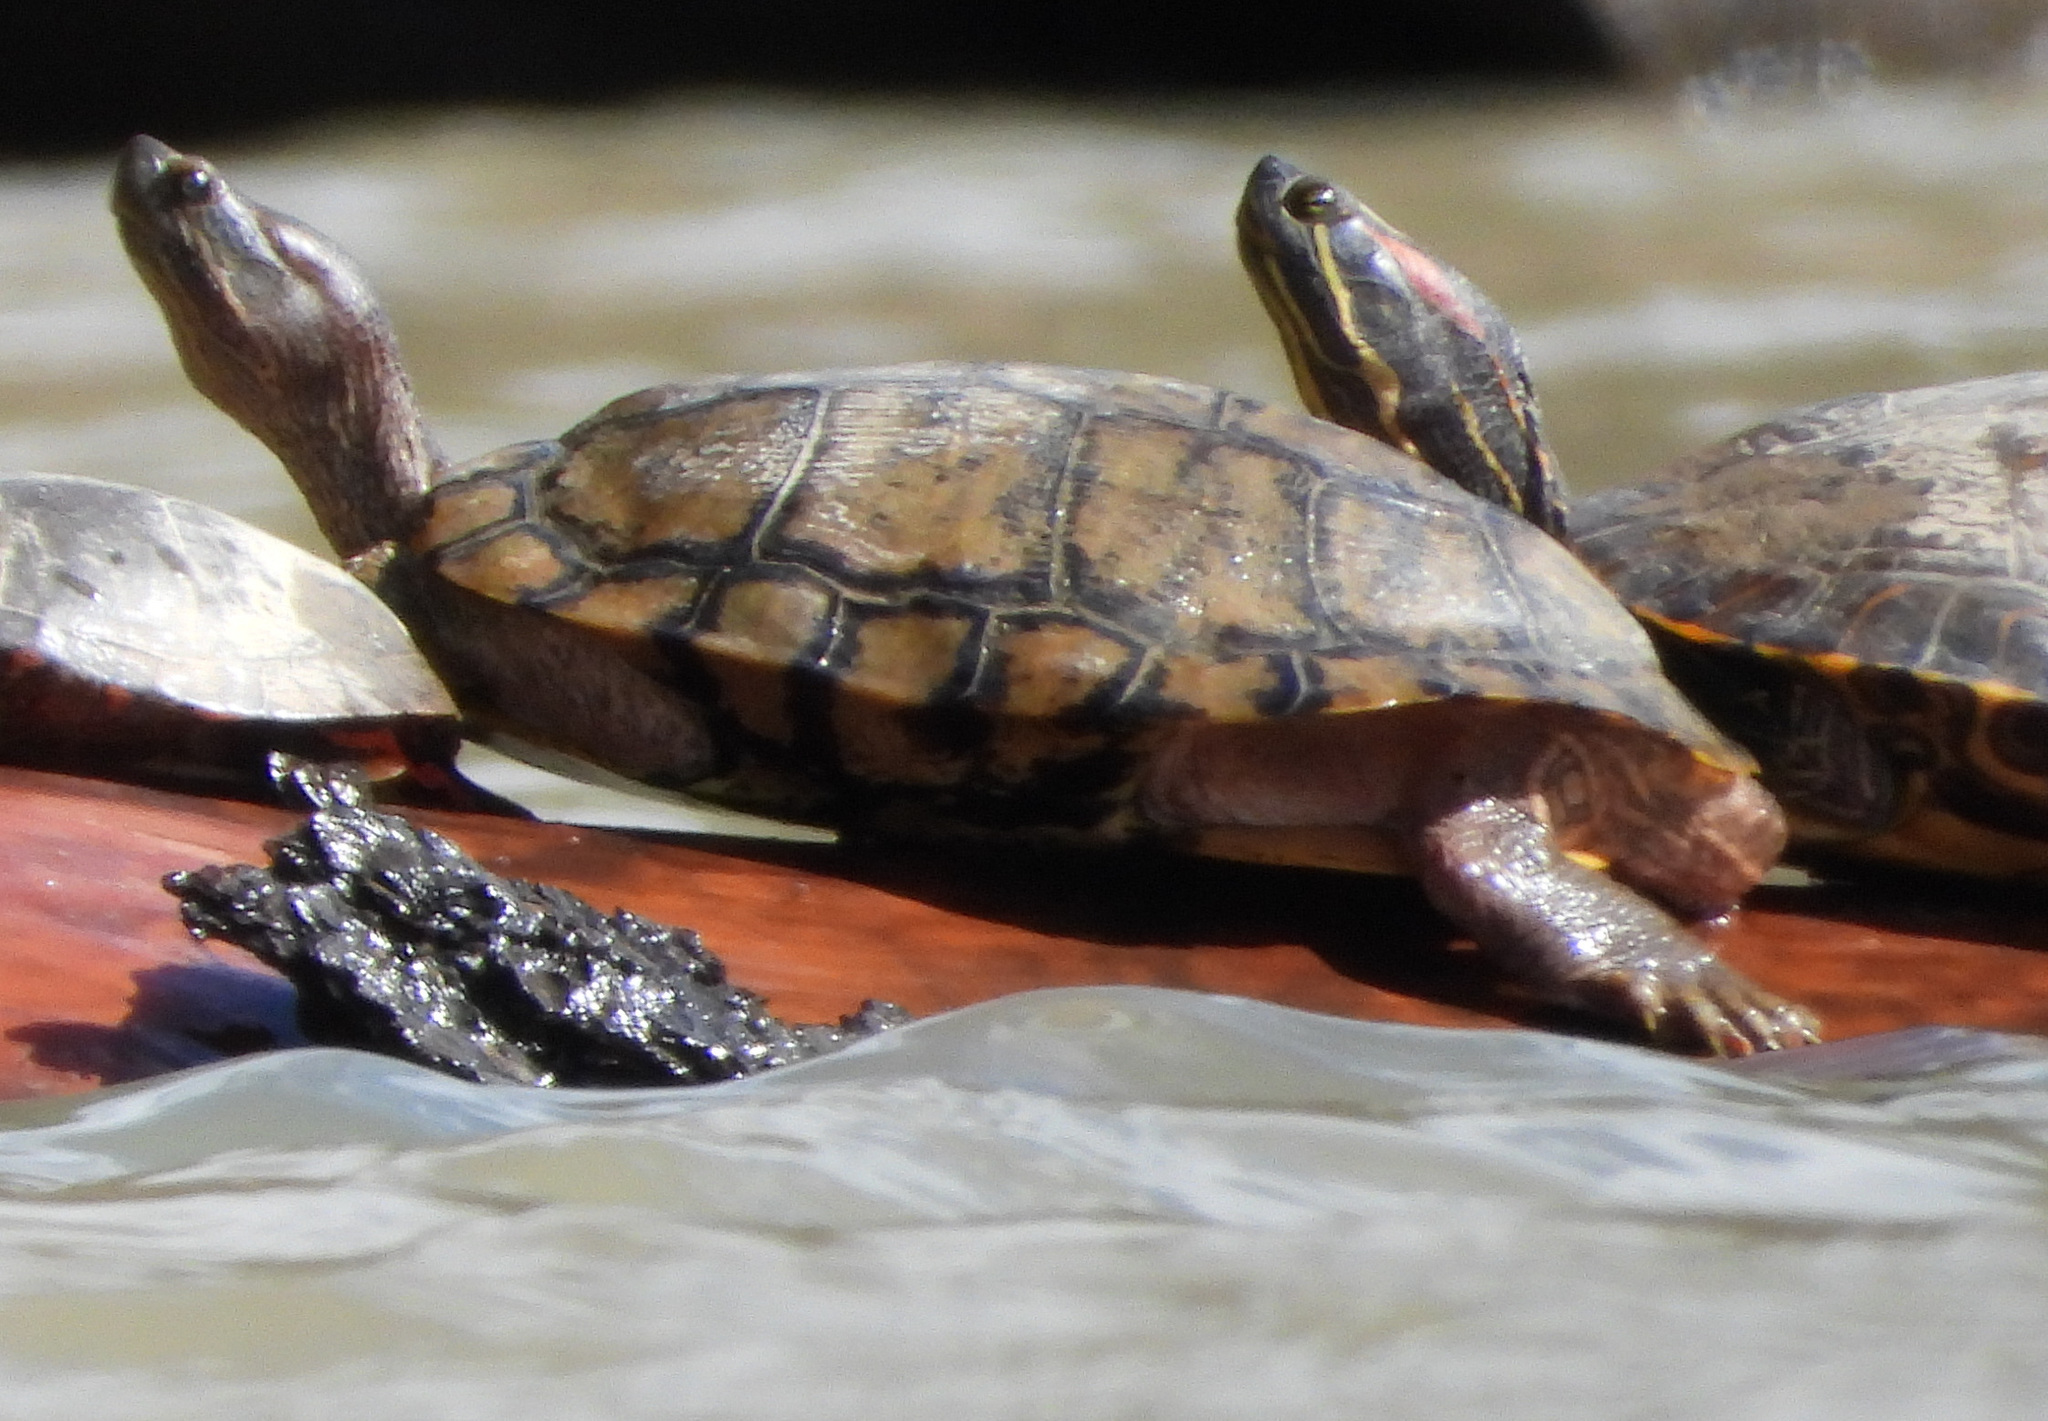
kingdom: Animalia
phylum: Chordata
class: Testudines
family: Emydidae
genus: Trachemys
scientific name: Trachemys scripta
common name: Slider
